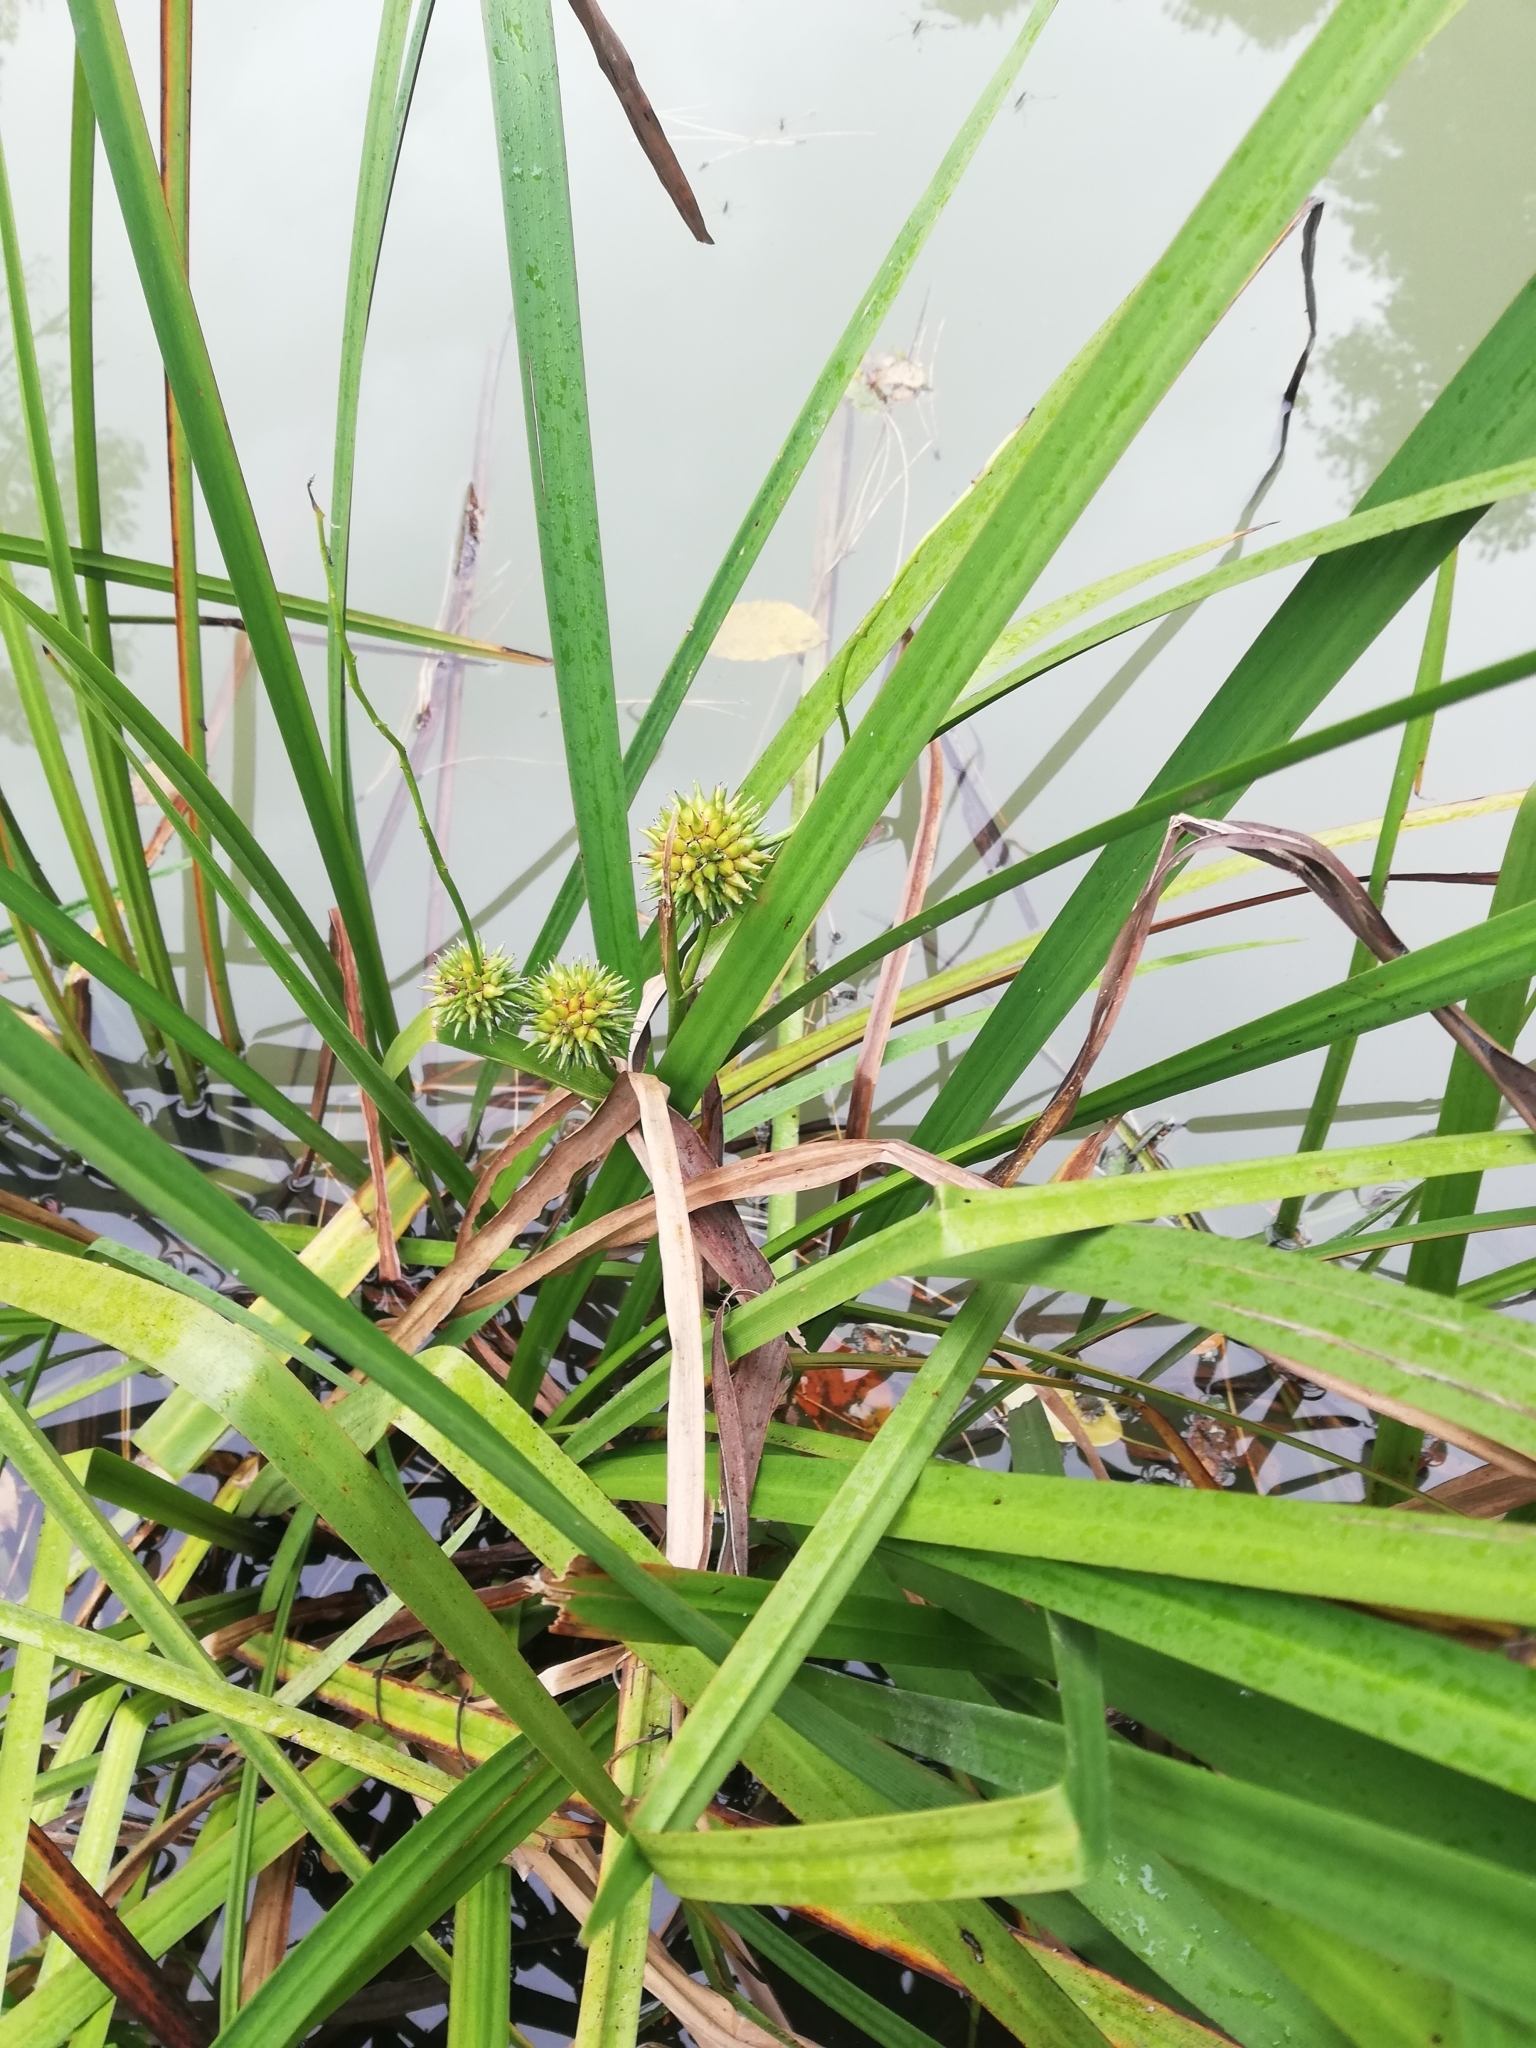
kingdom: Plantae
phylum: Tracheophyta
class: Liliopsida
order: Poales
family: Typhaceae
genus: Sparganium
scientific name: Sparganium erectum
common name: Branched bur-reed
